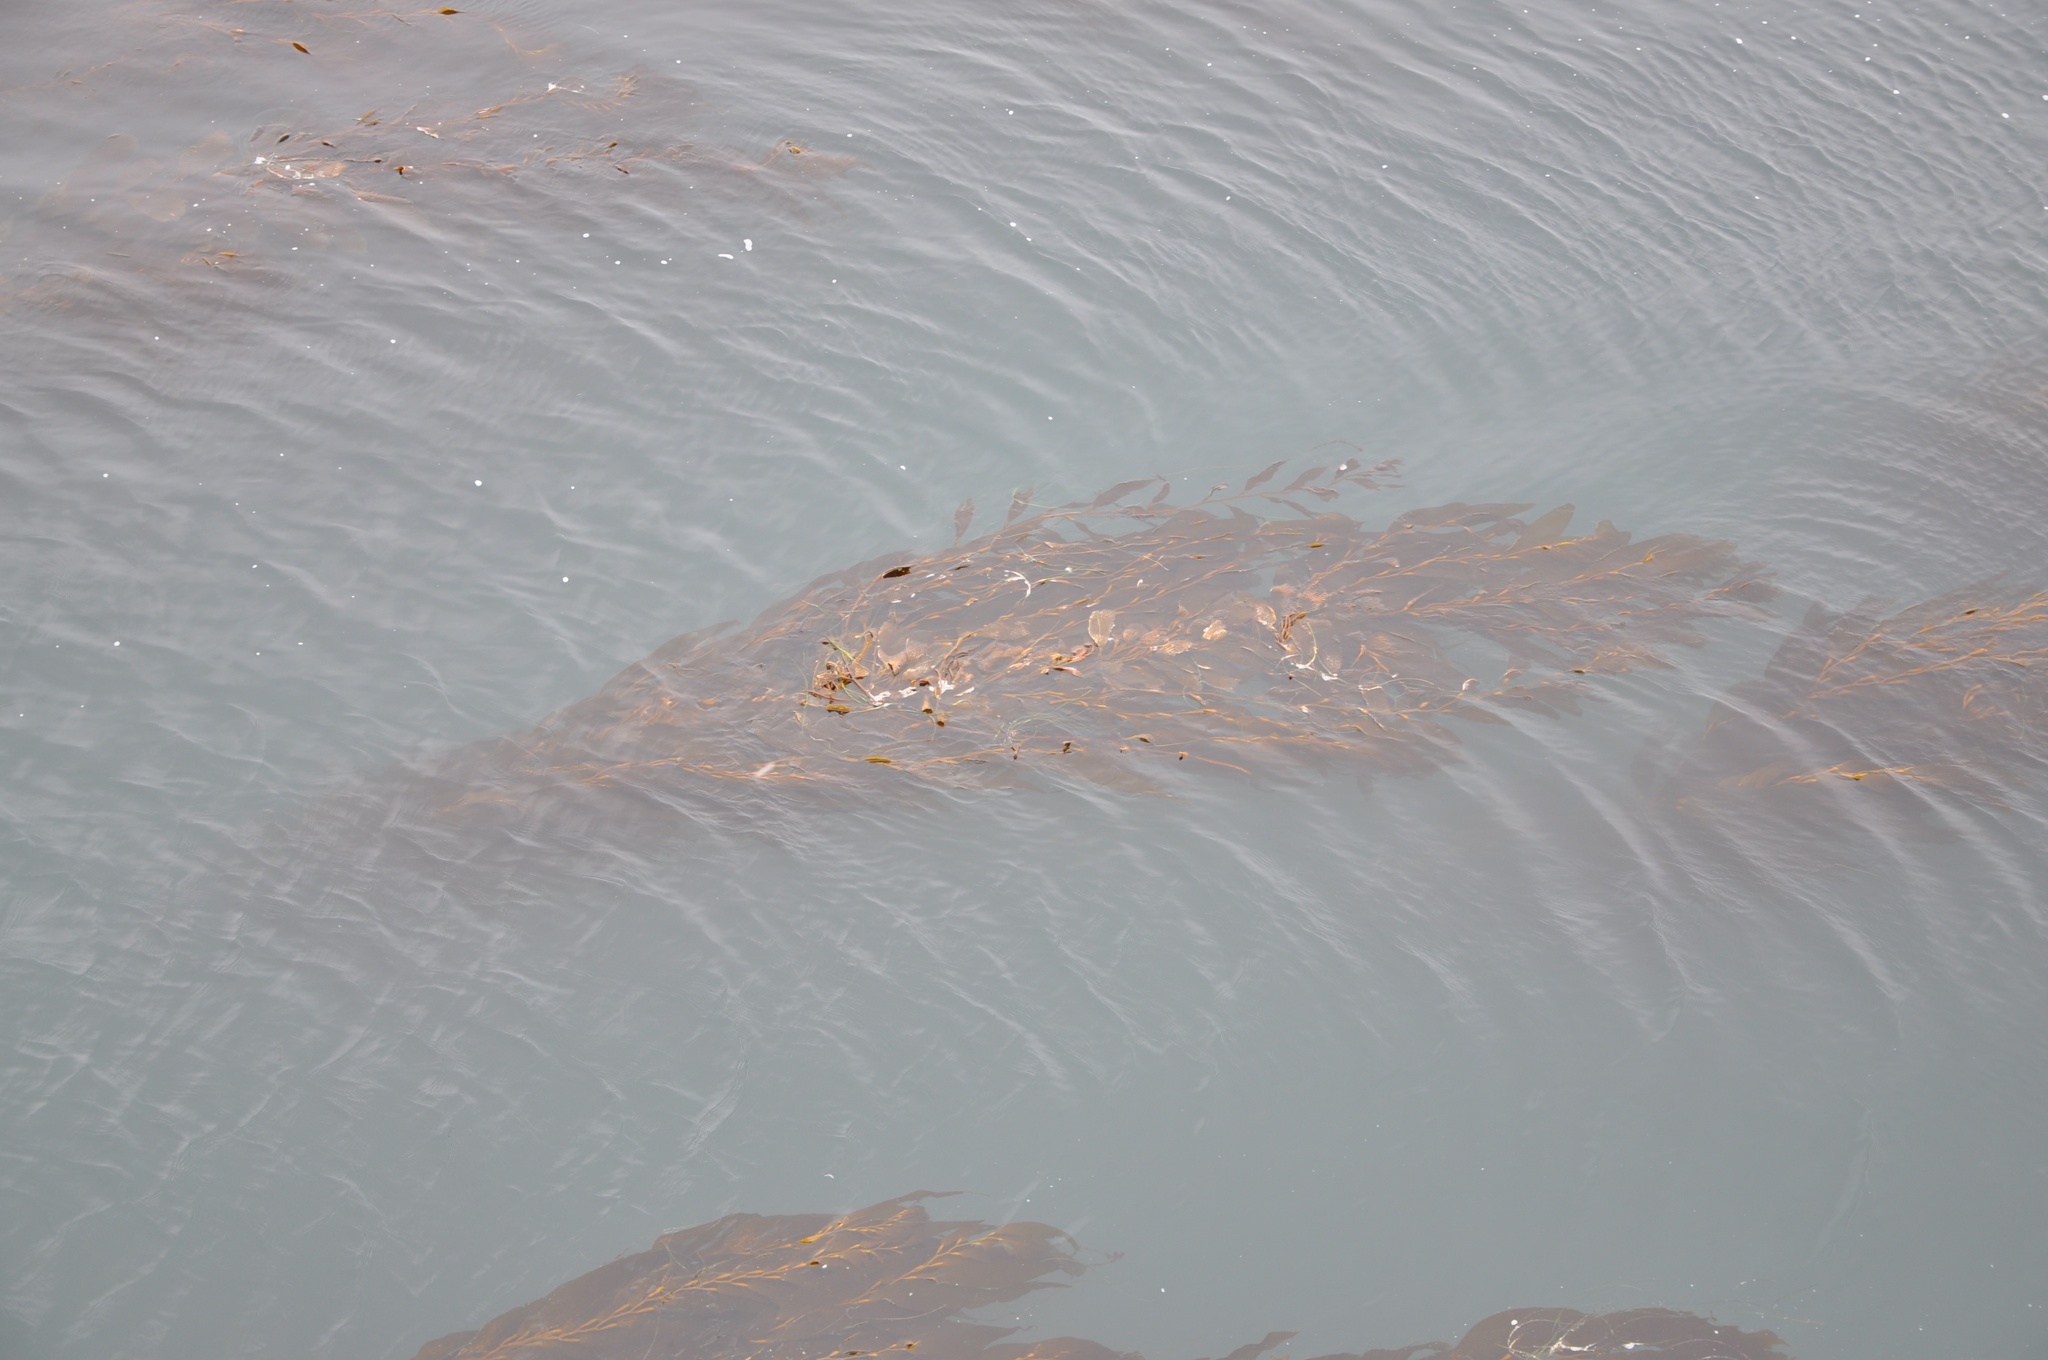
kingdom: Chromista
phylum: Ochrophyta
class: Phaeophyceae
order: Laminariales
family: Laminariaceae
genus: Macrocystis
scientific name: Macrocystis pyrifera
